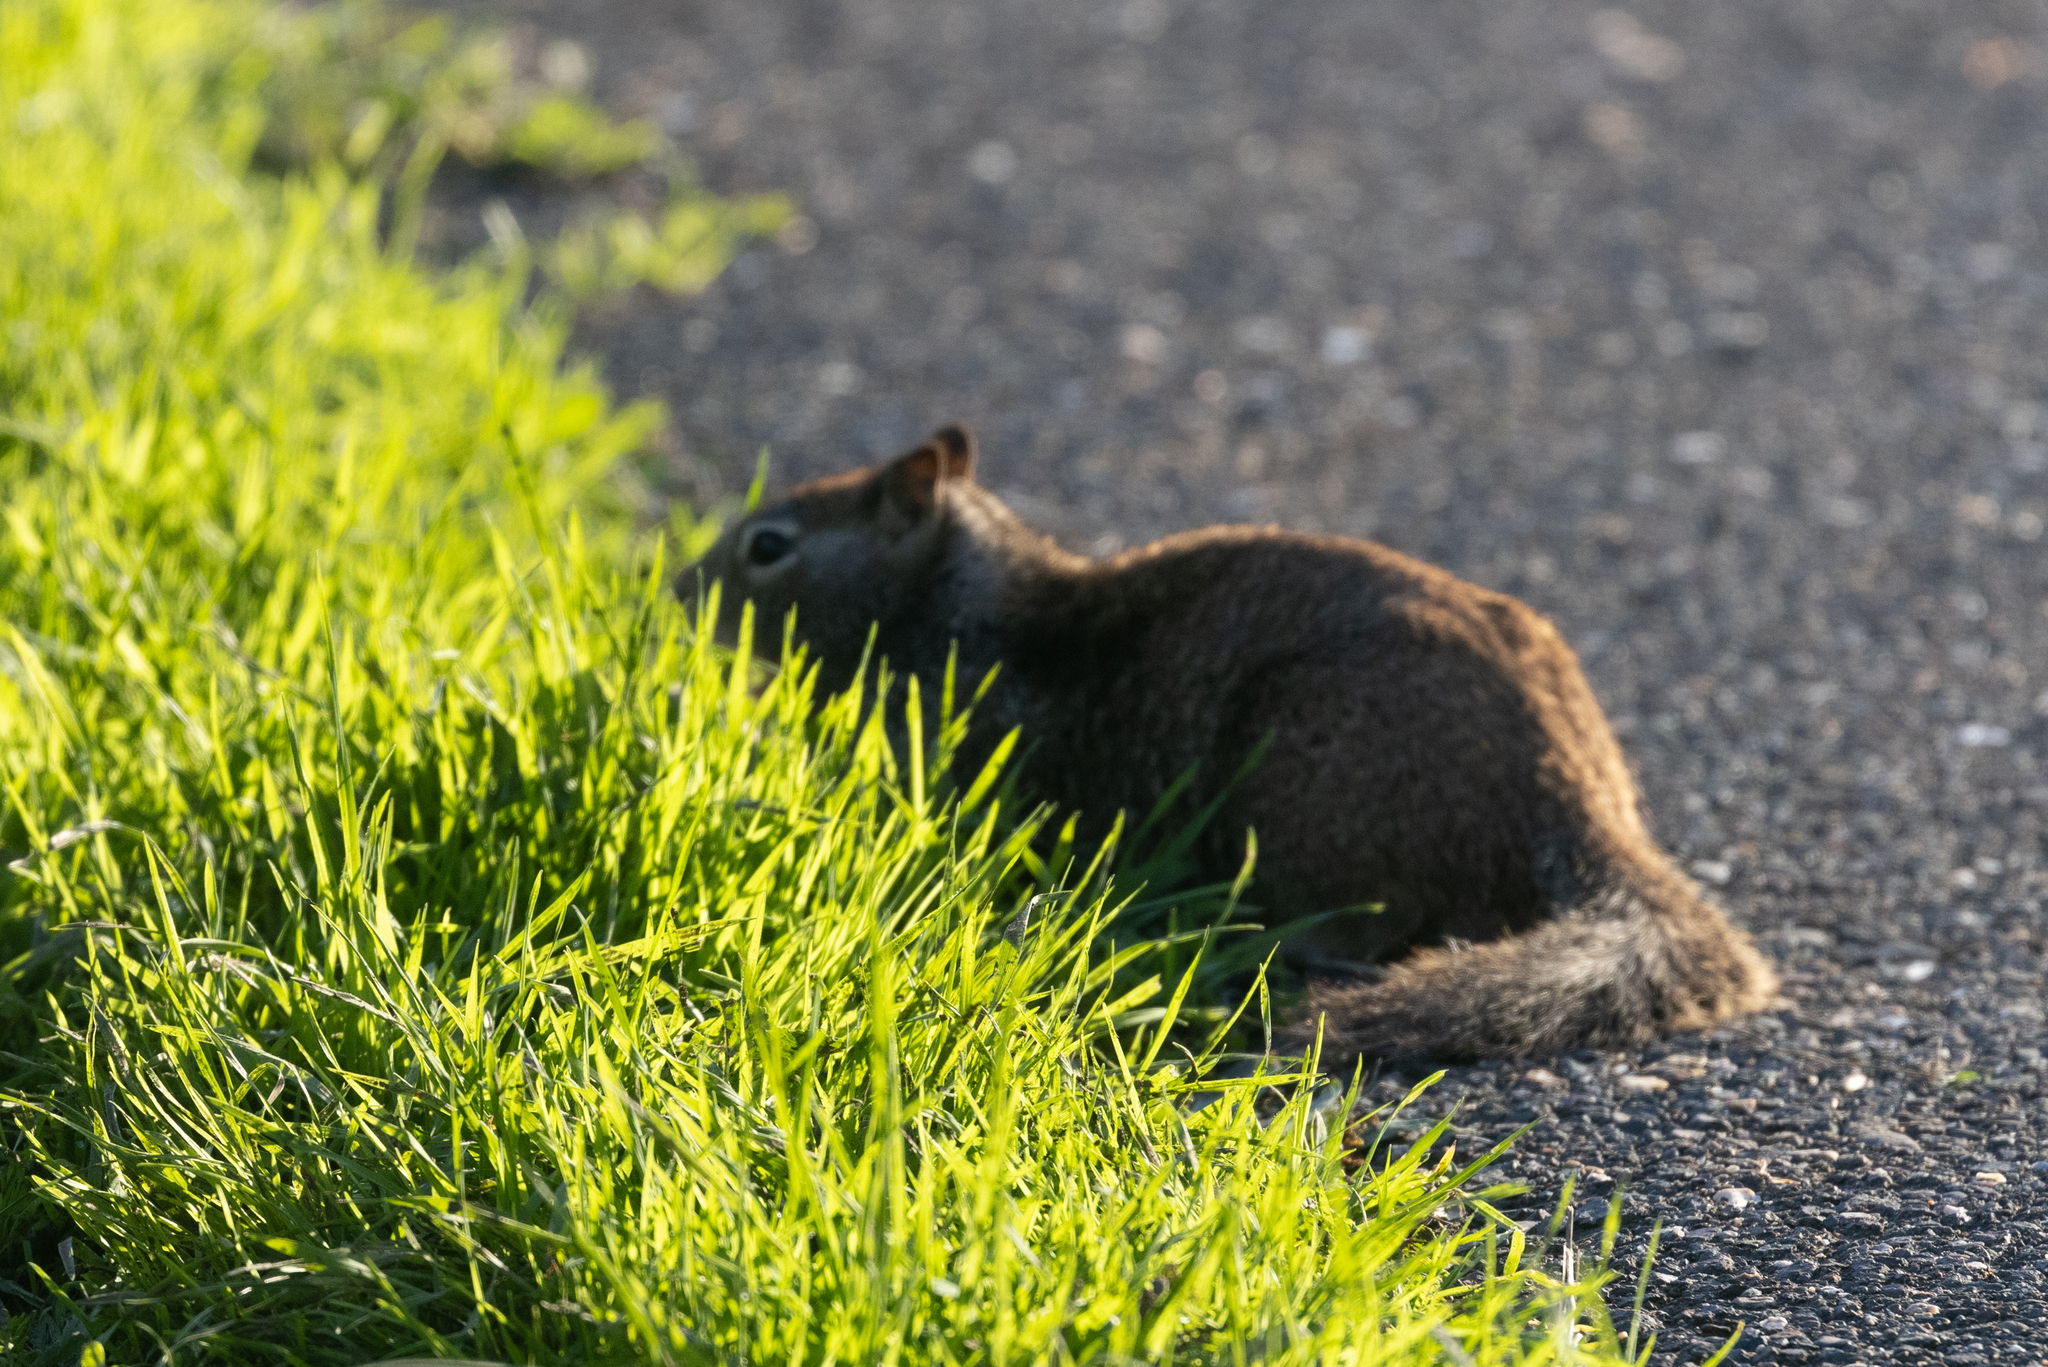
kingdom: Animalia
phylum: Chordata
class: Mammalia
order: Rodentia
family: Sciuridae
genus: Otospermophilus
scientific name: Otospermophilus beecheyi
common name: California ground squirrel
